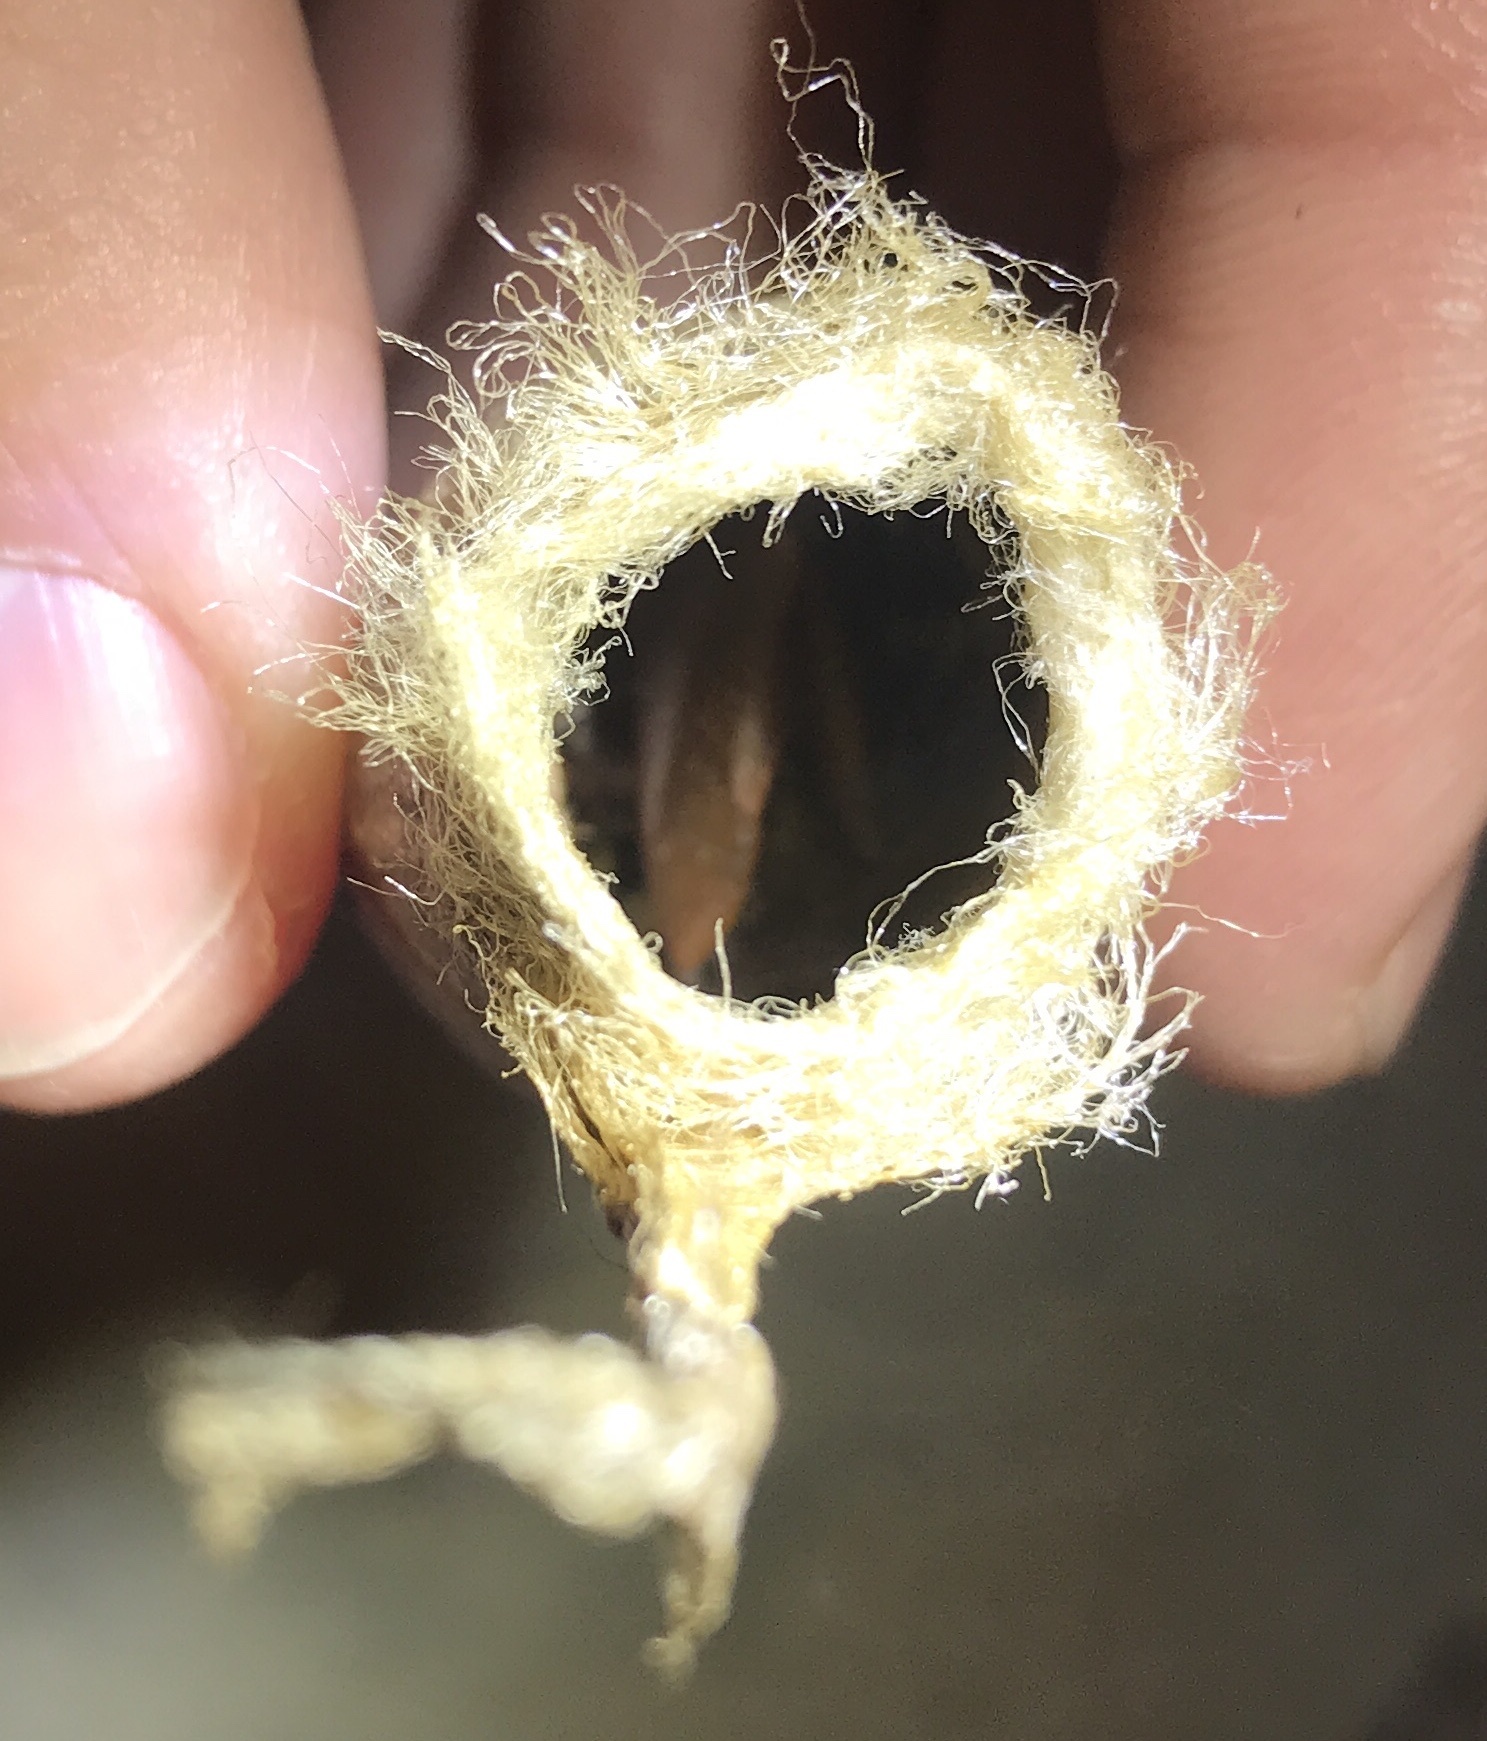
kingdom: Animalia
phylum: Arthropoda
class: Insecta
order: Lepidoptera
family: Saturniidae
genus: Antheraea
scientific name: Antheraea polyphemus
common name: Polyphemus moth
